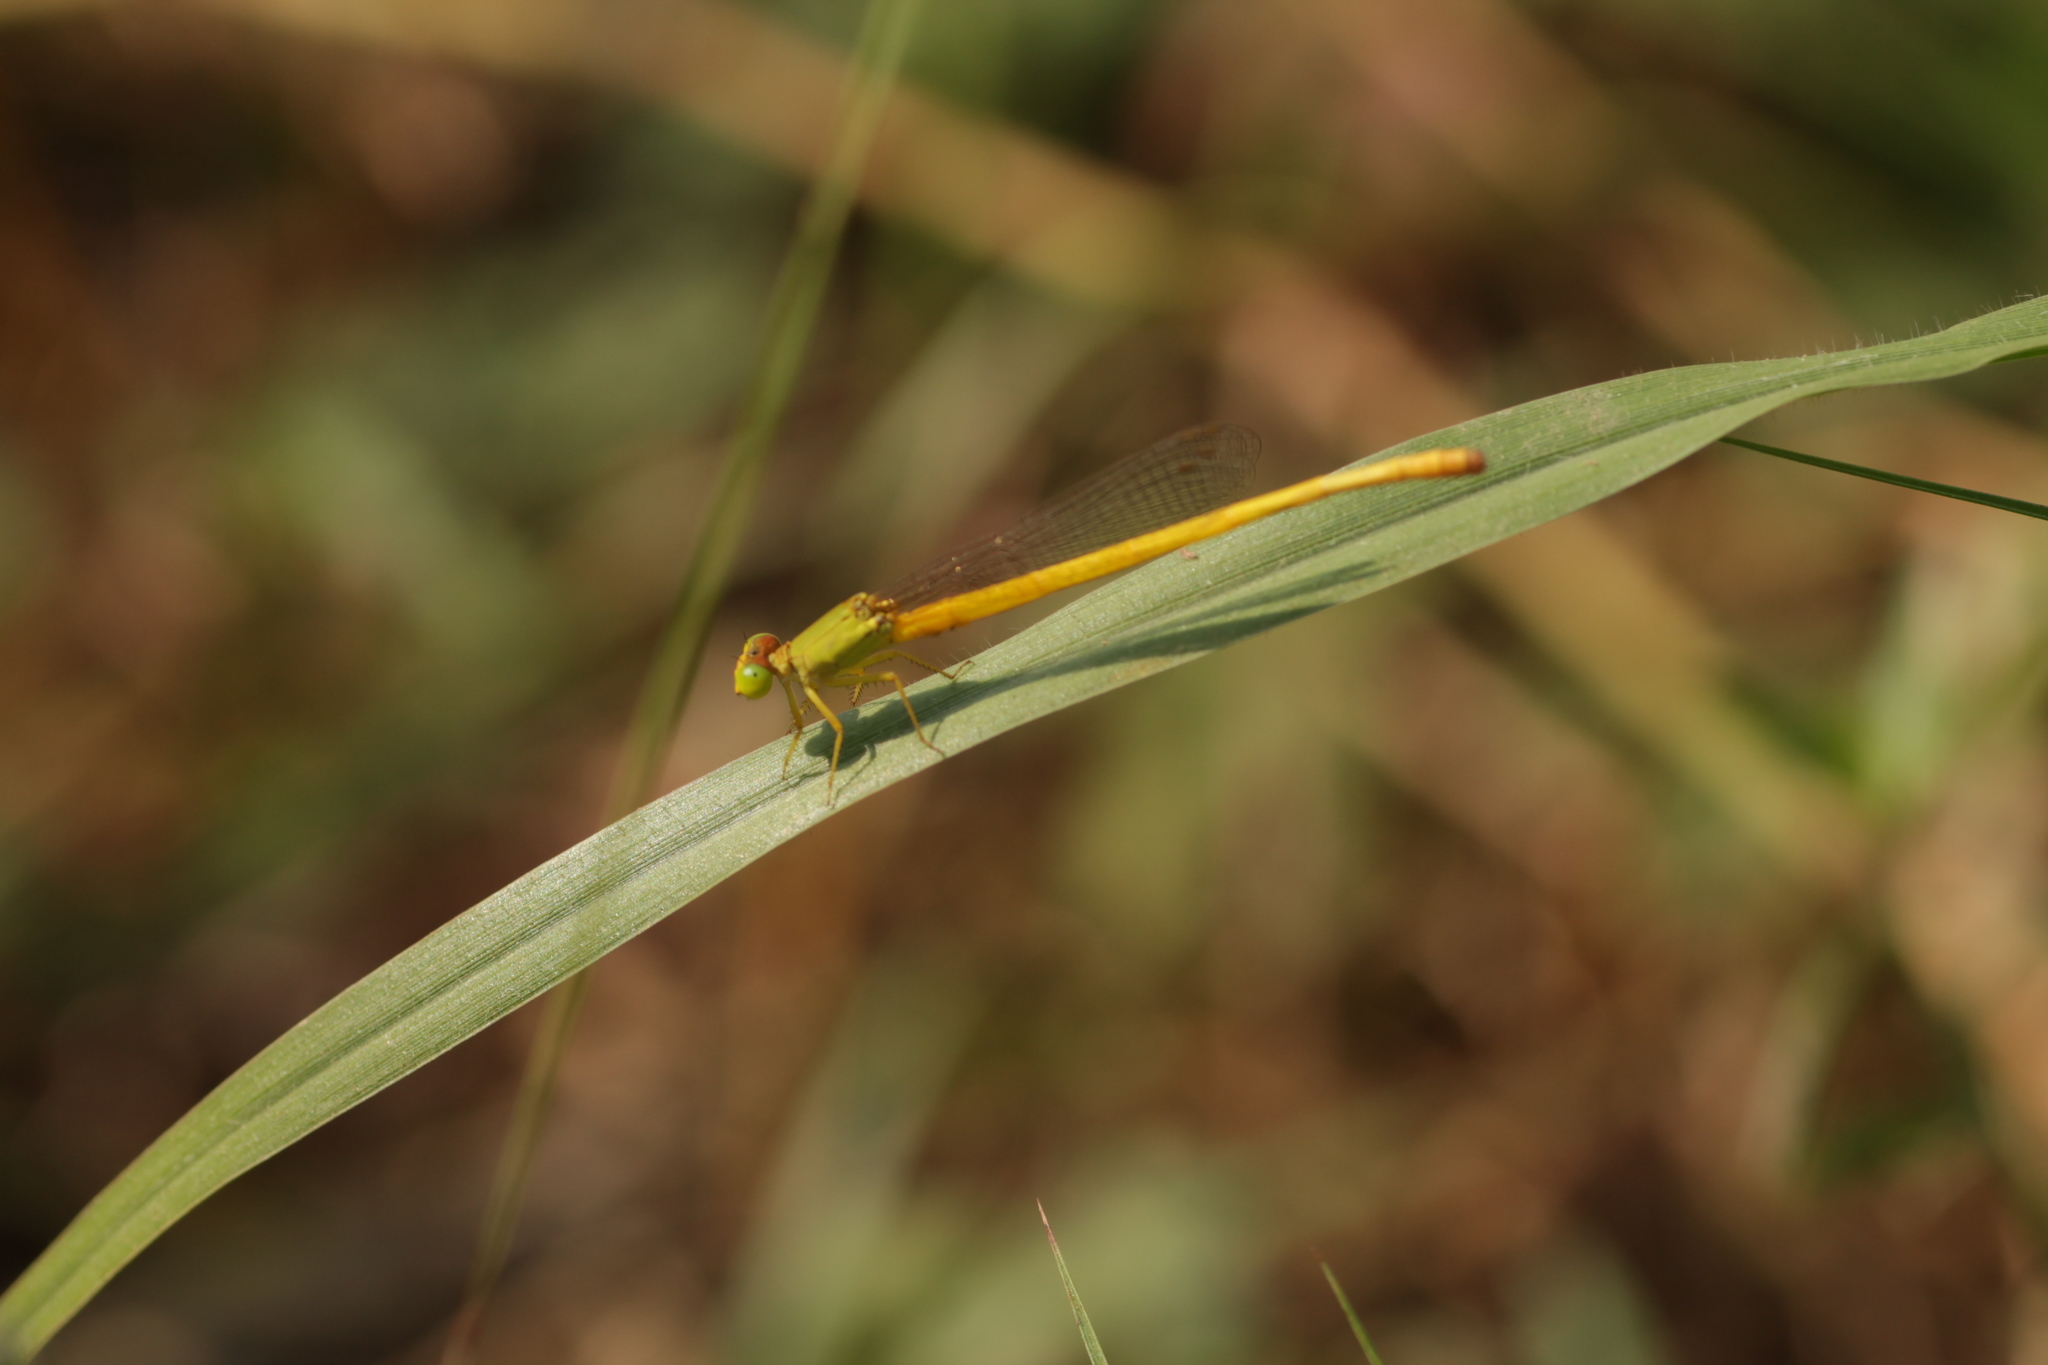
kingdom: Animalia
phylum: Arthropoda
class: Insecta
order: Odonata
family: Coenagrionidae
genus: Ceriagrion
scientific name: Ceriagrion coromandelianum
